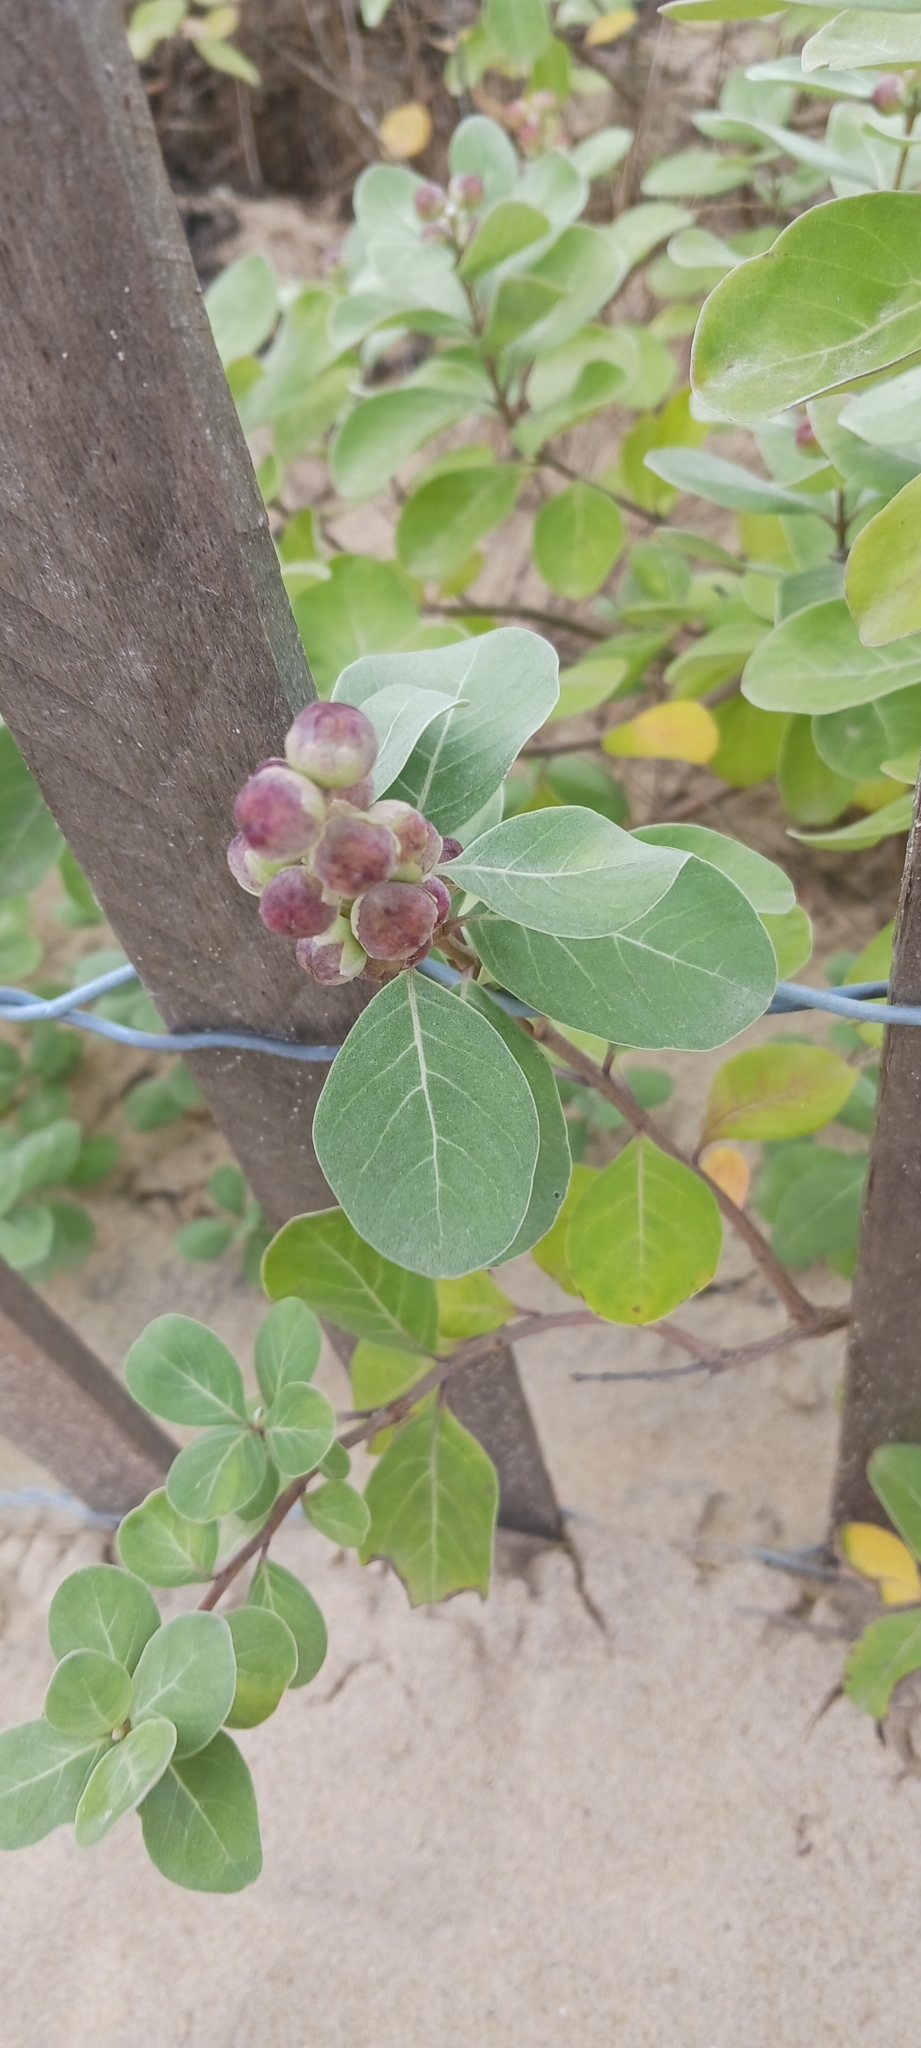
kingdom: Plantae
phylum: Tracheophyta
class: Magnoliopsida
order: Lamiales
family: Lamiaceae
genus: Vitex
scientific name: Vitex rotundifolia
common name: Beach vitex
